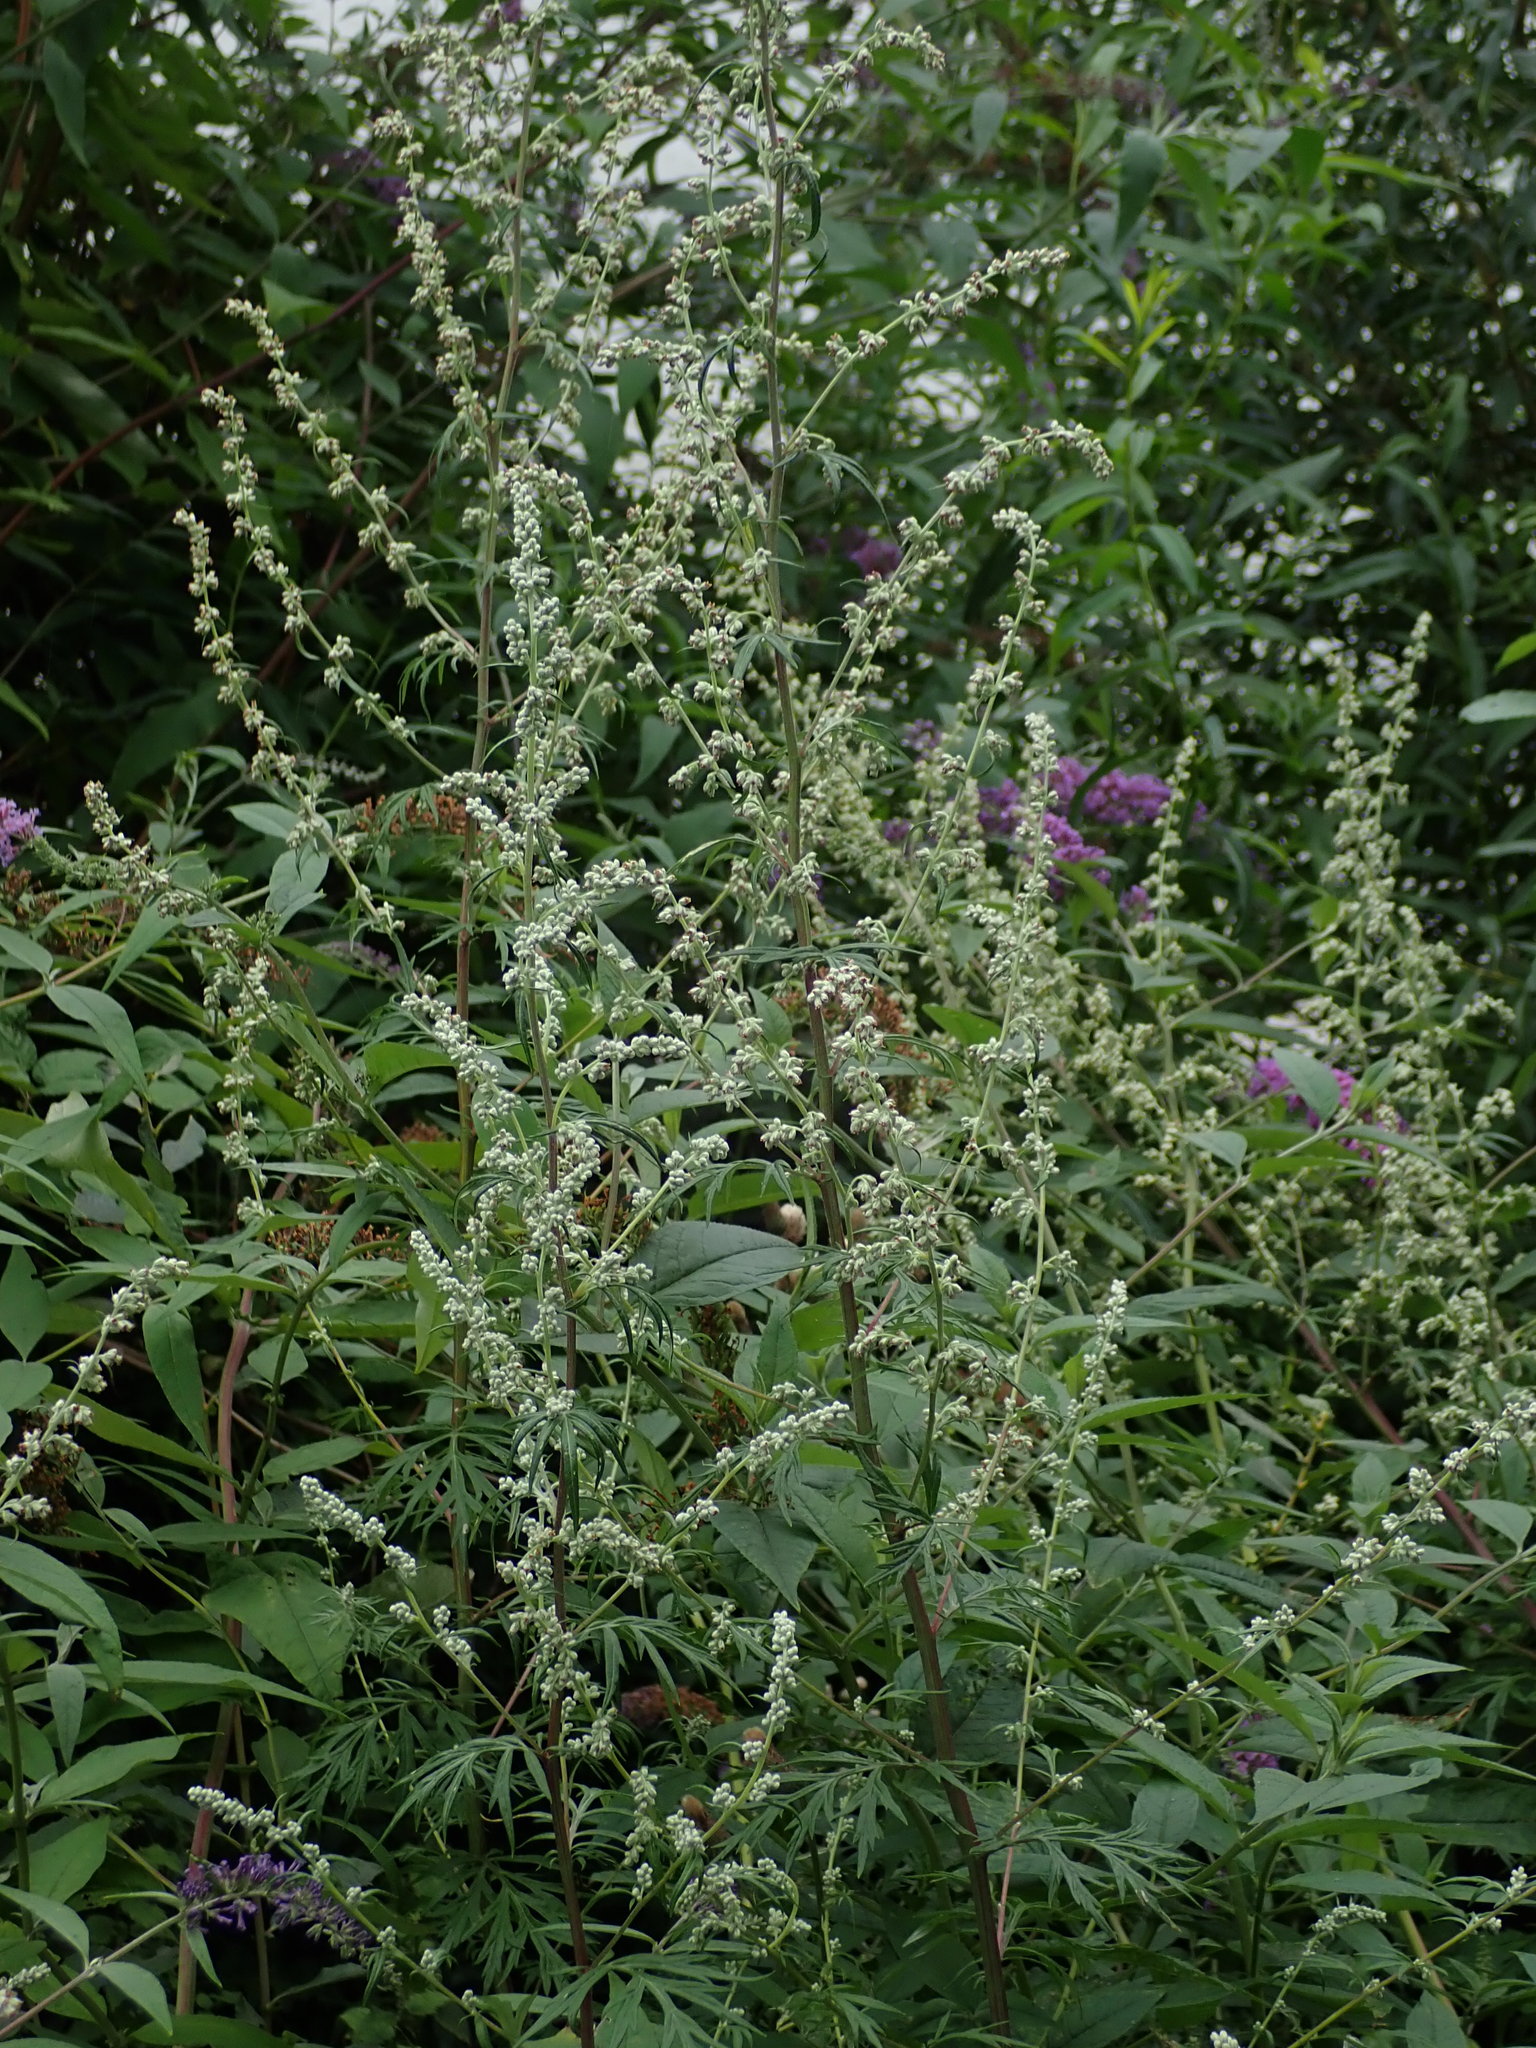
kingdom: Plantae
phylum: Tracheophyta
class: Magnoliopsida
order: Asterales
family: Asteraceae
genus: Artemisia
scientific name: Artemisia vulgaris
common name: Mugwort
